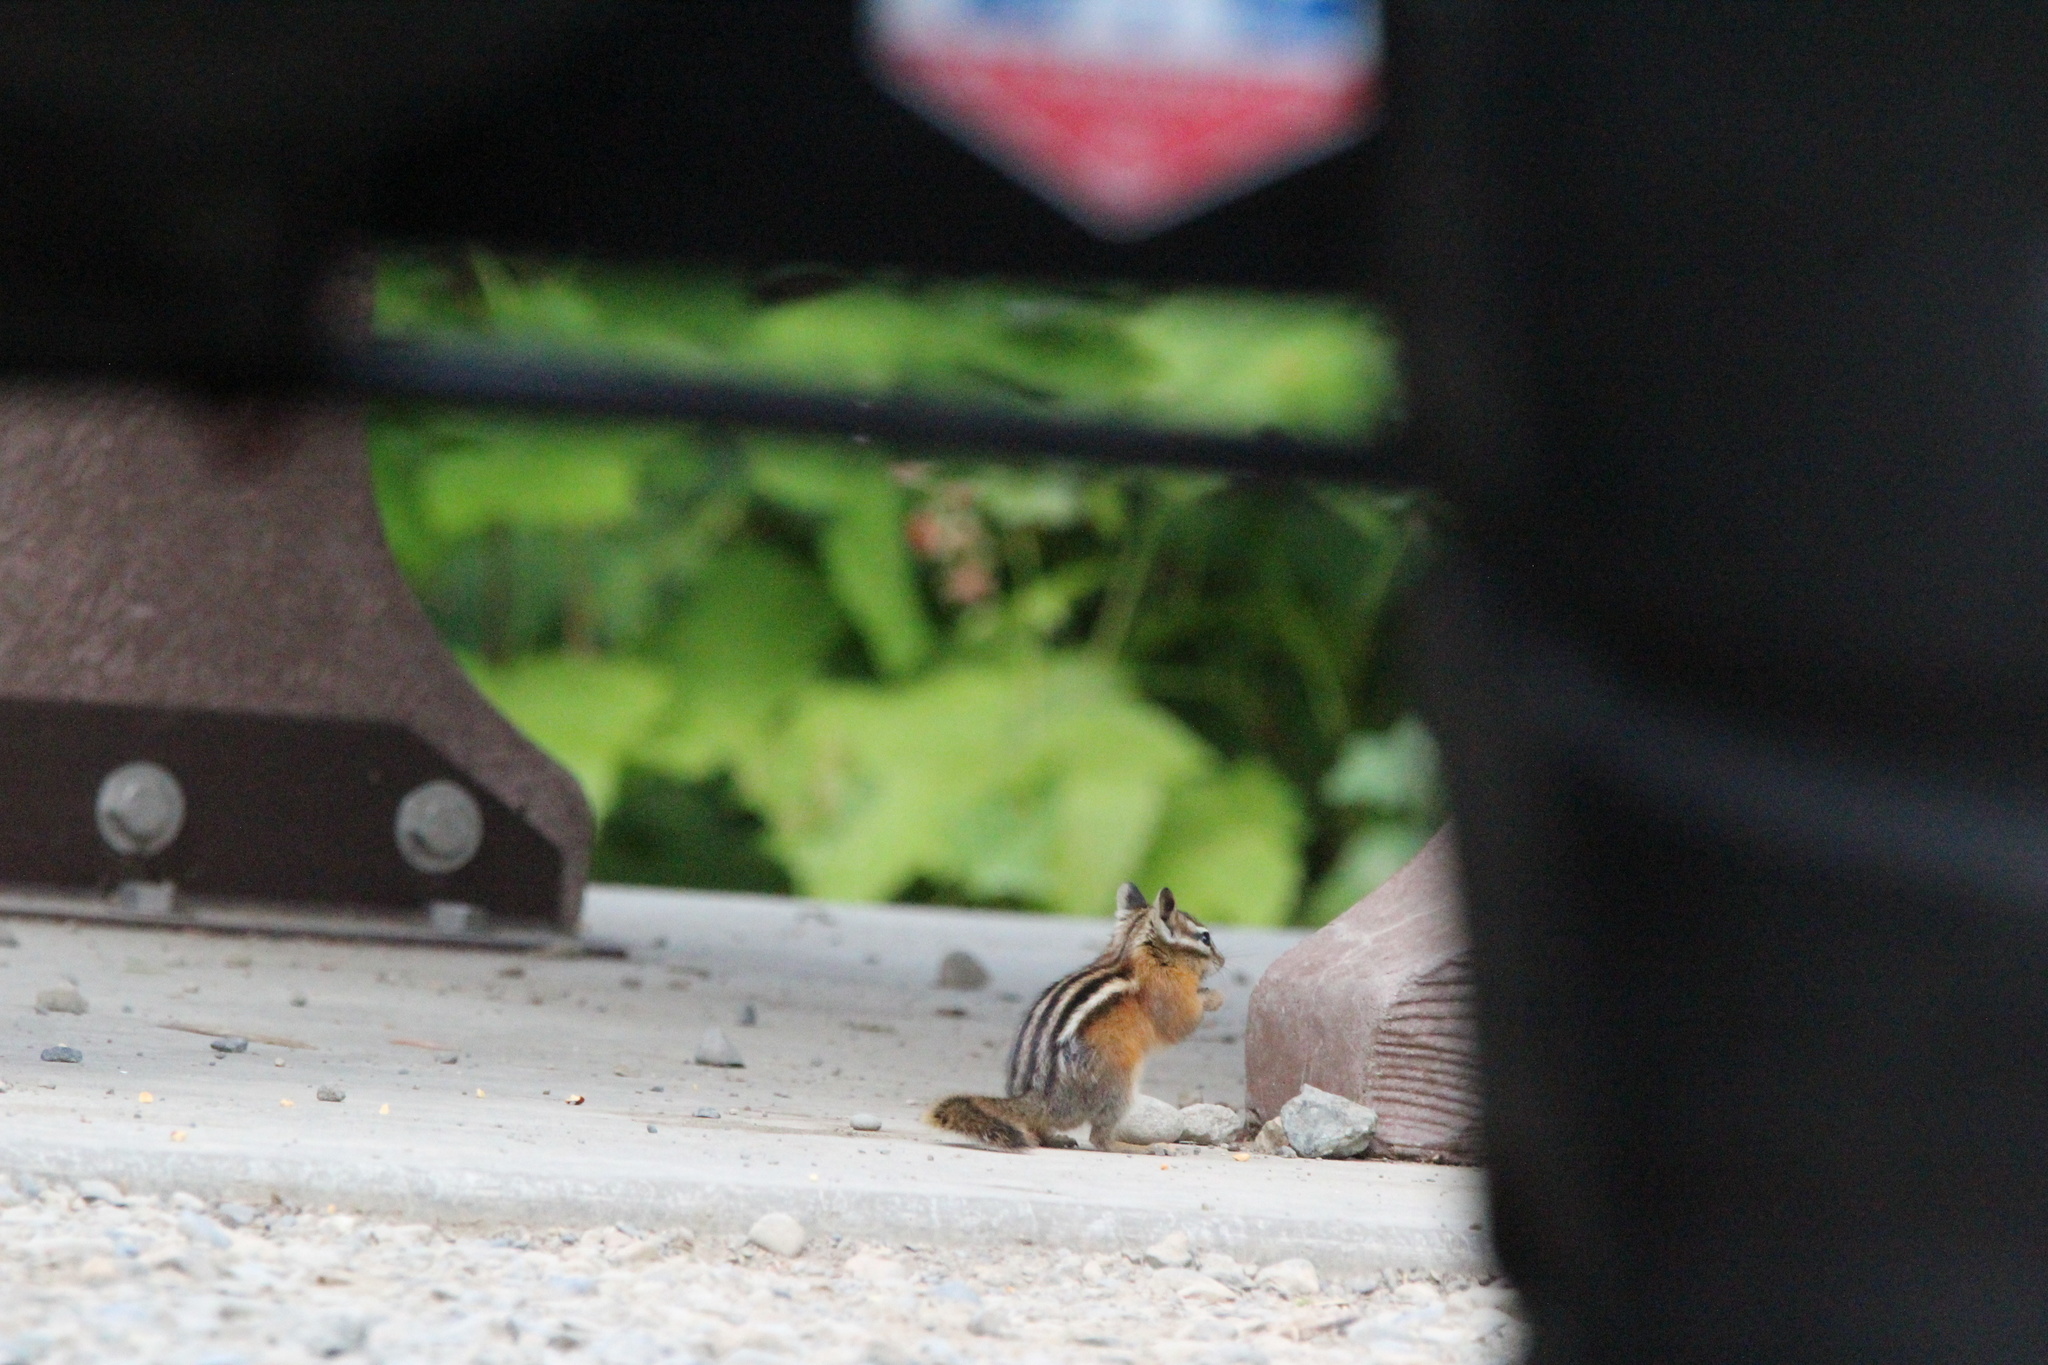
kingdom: Animalia
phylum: Chordata
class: Mammalia
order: Rodentia
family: Sciuridae
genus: Tamias
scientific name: Tamias amoenus
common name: Yellow-pine chipmunk
